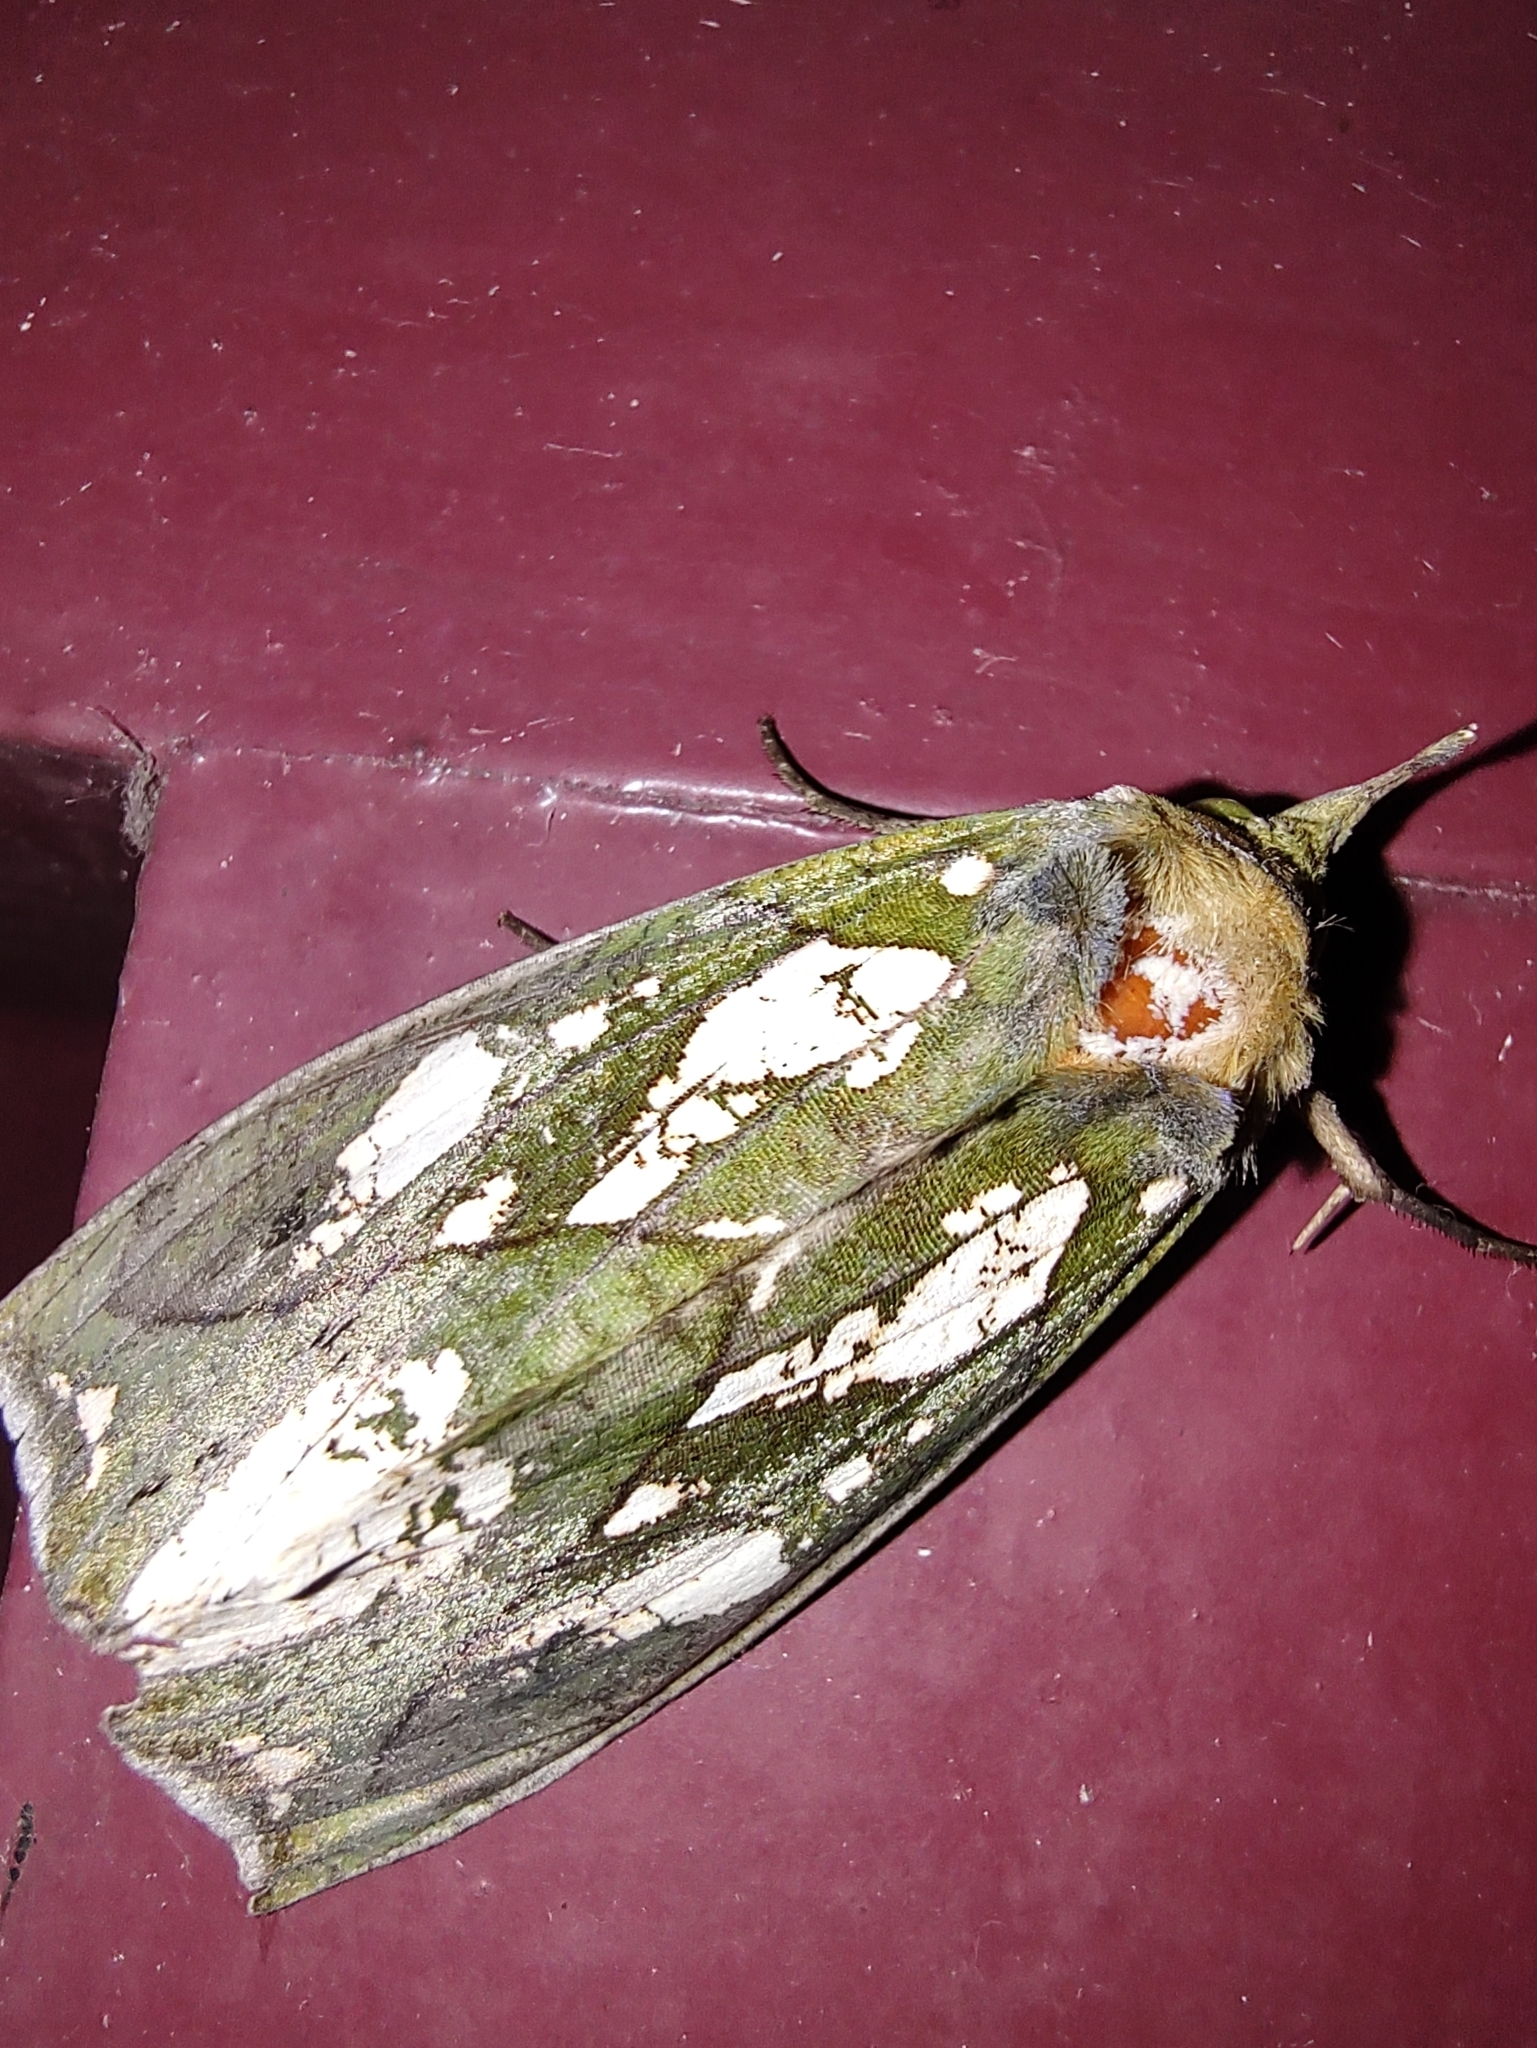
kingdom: Animalia
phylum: Arthropoda
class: Insecta
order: Lepidoptera
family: Erebidae
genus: Eudocima
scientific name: Eudocima hypermnestra
